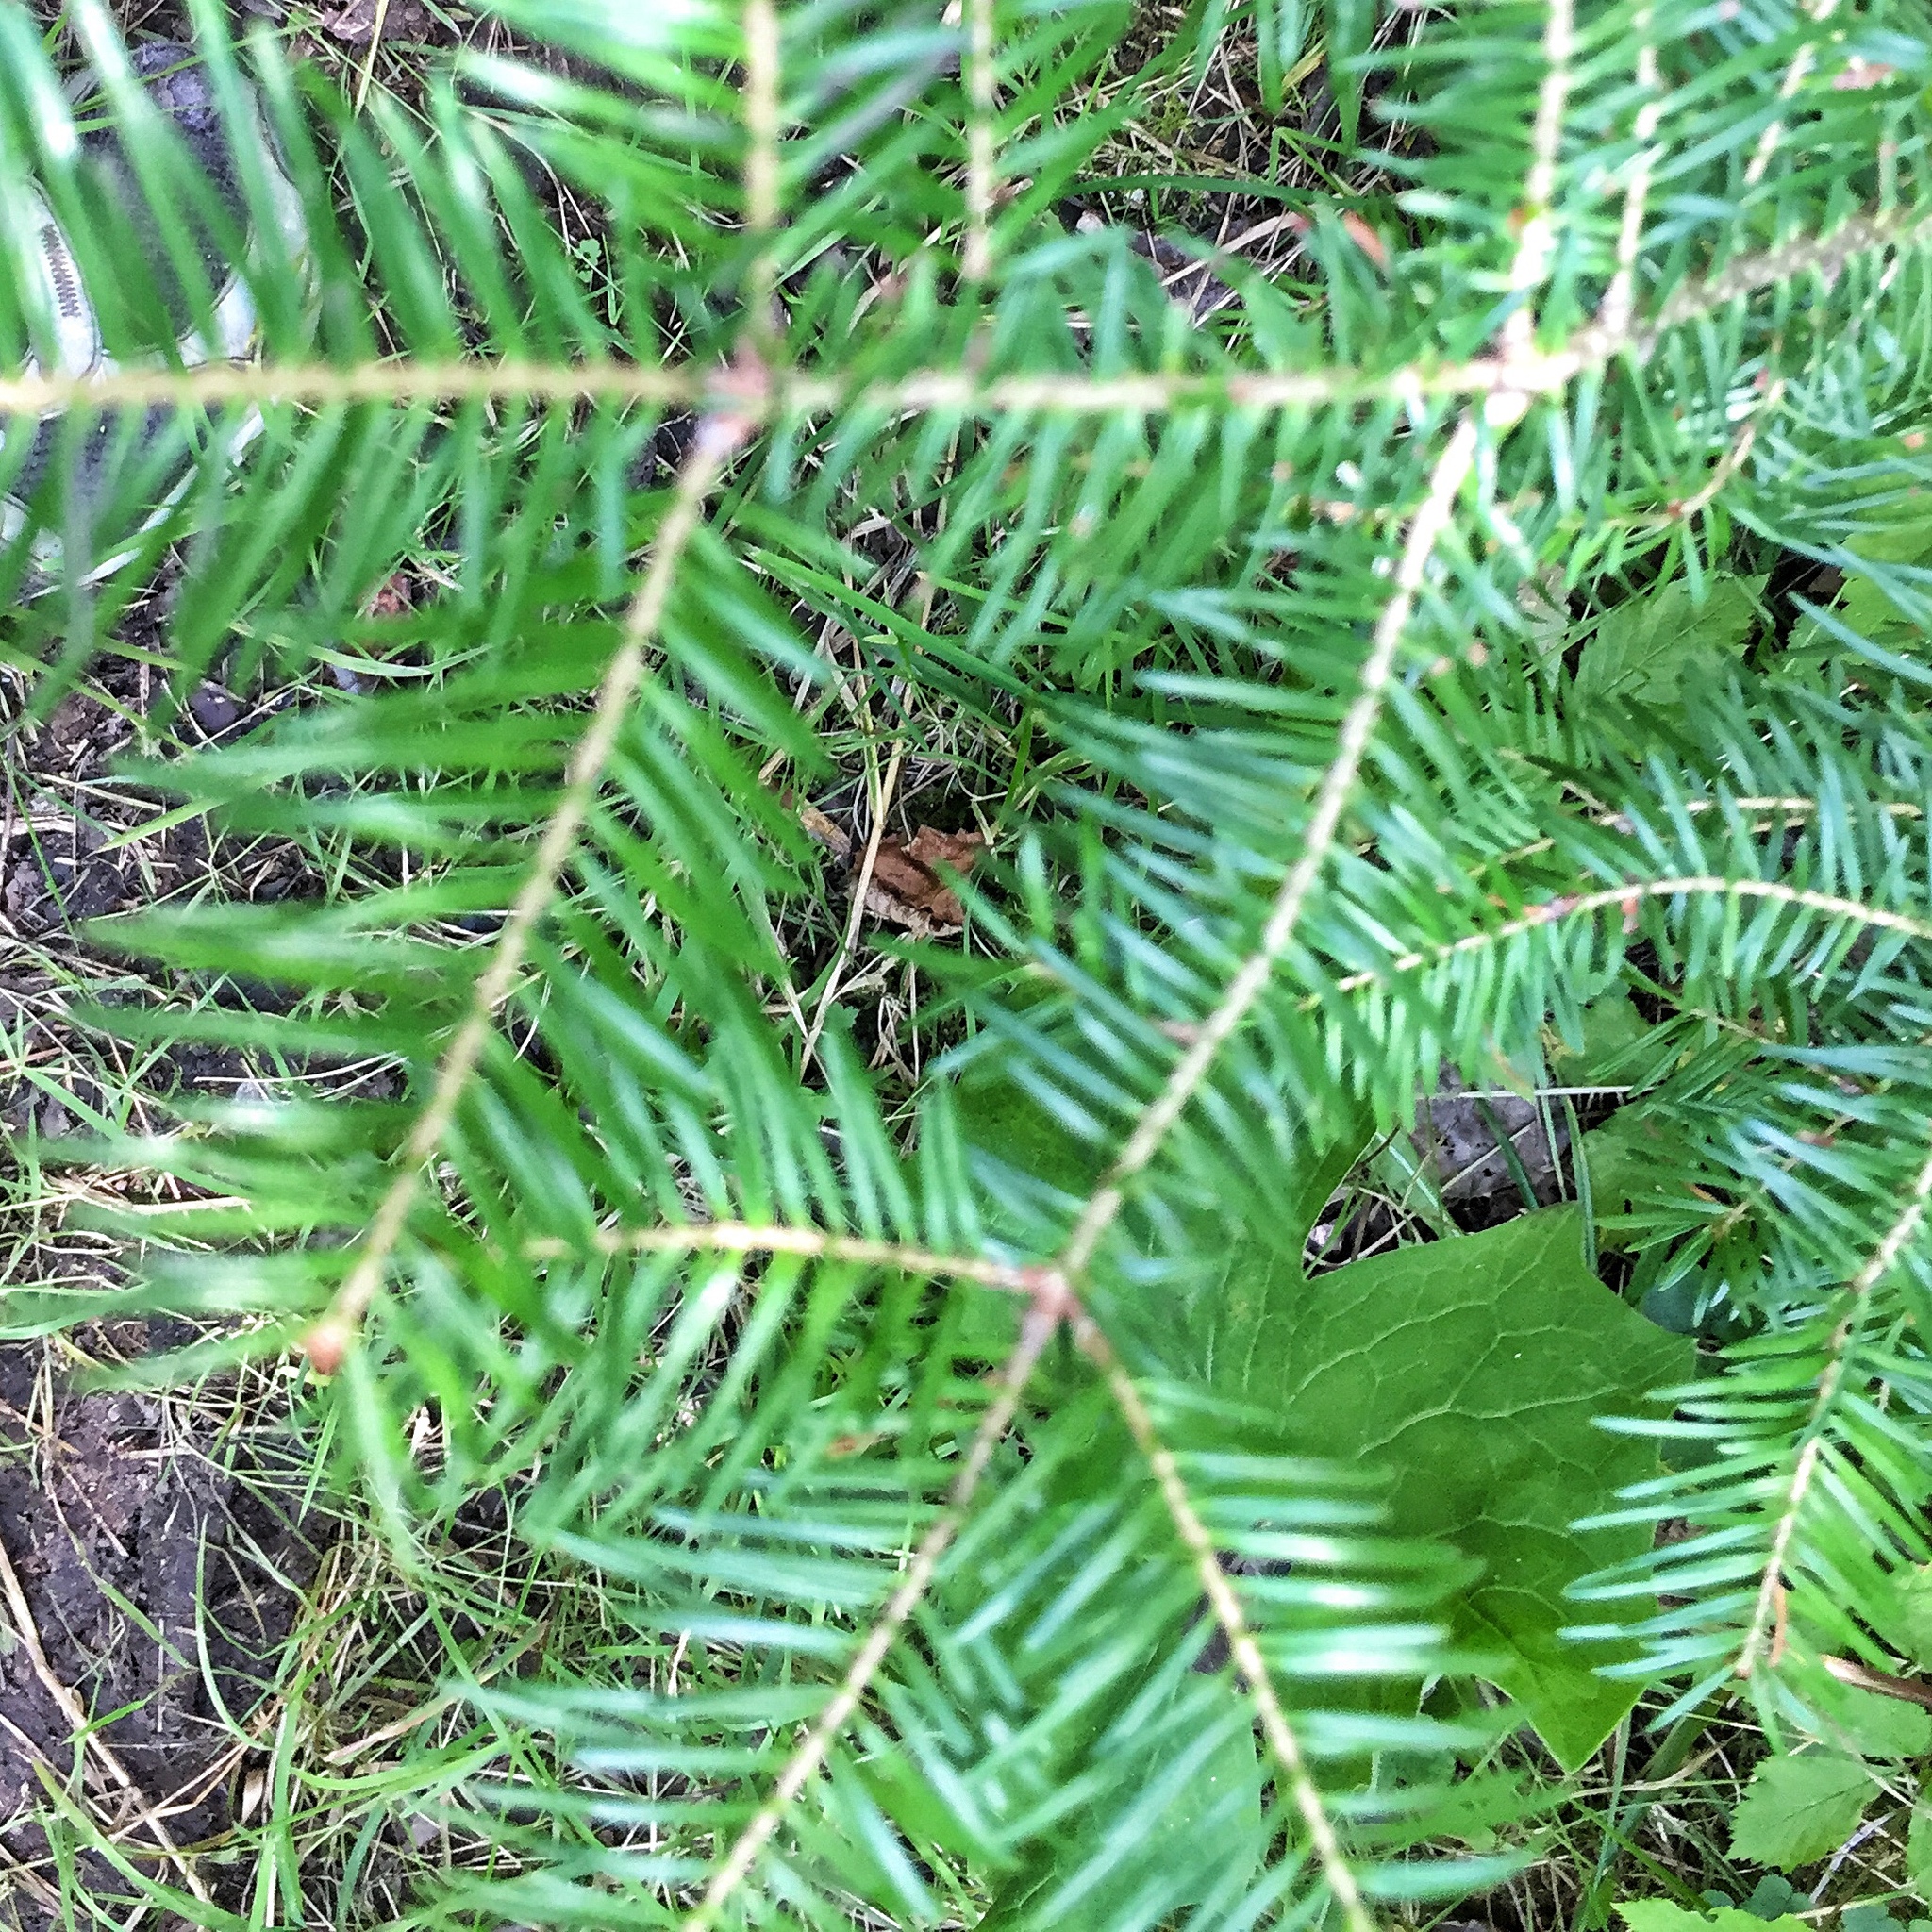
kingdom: Plantae
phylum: Tracheophyta
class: Pinopsida
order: Pinales
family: Pinaceae
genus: Abies
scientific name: Abies balsamea
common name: Balsam fir
